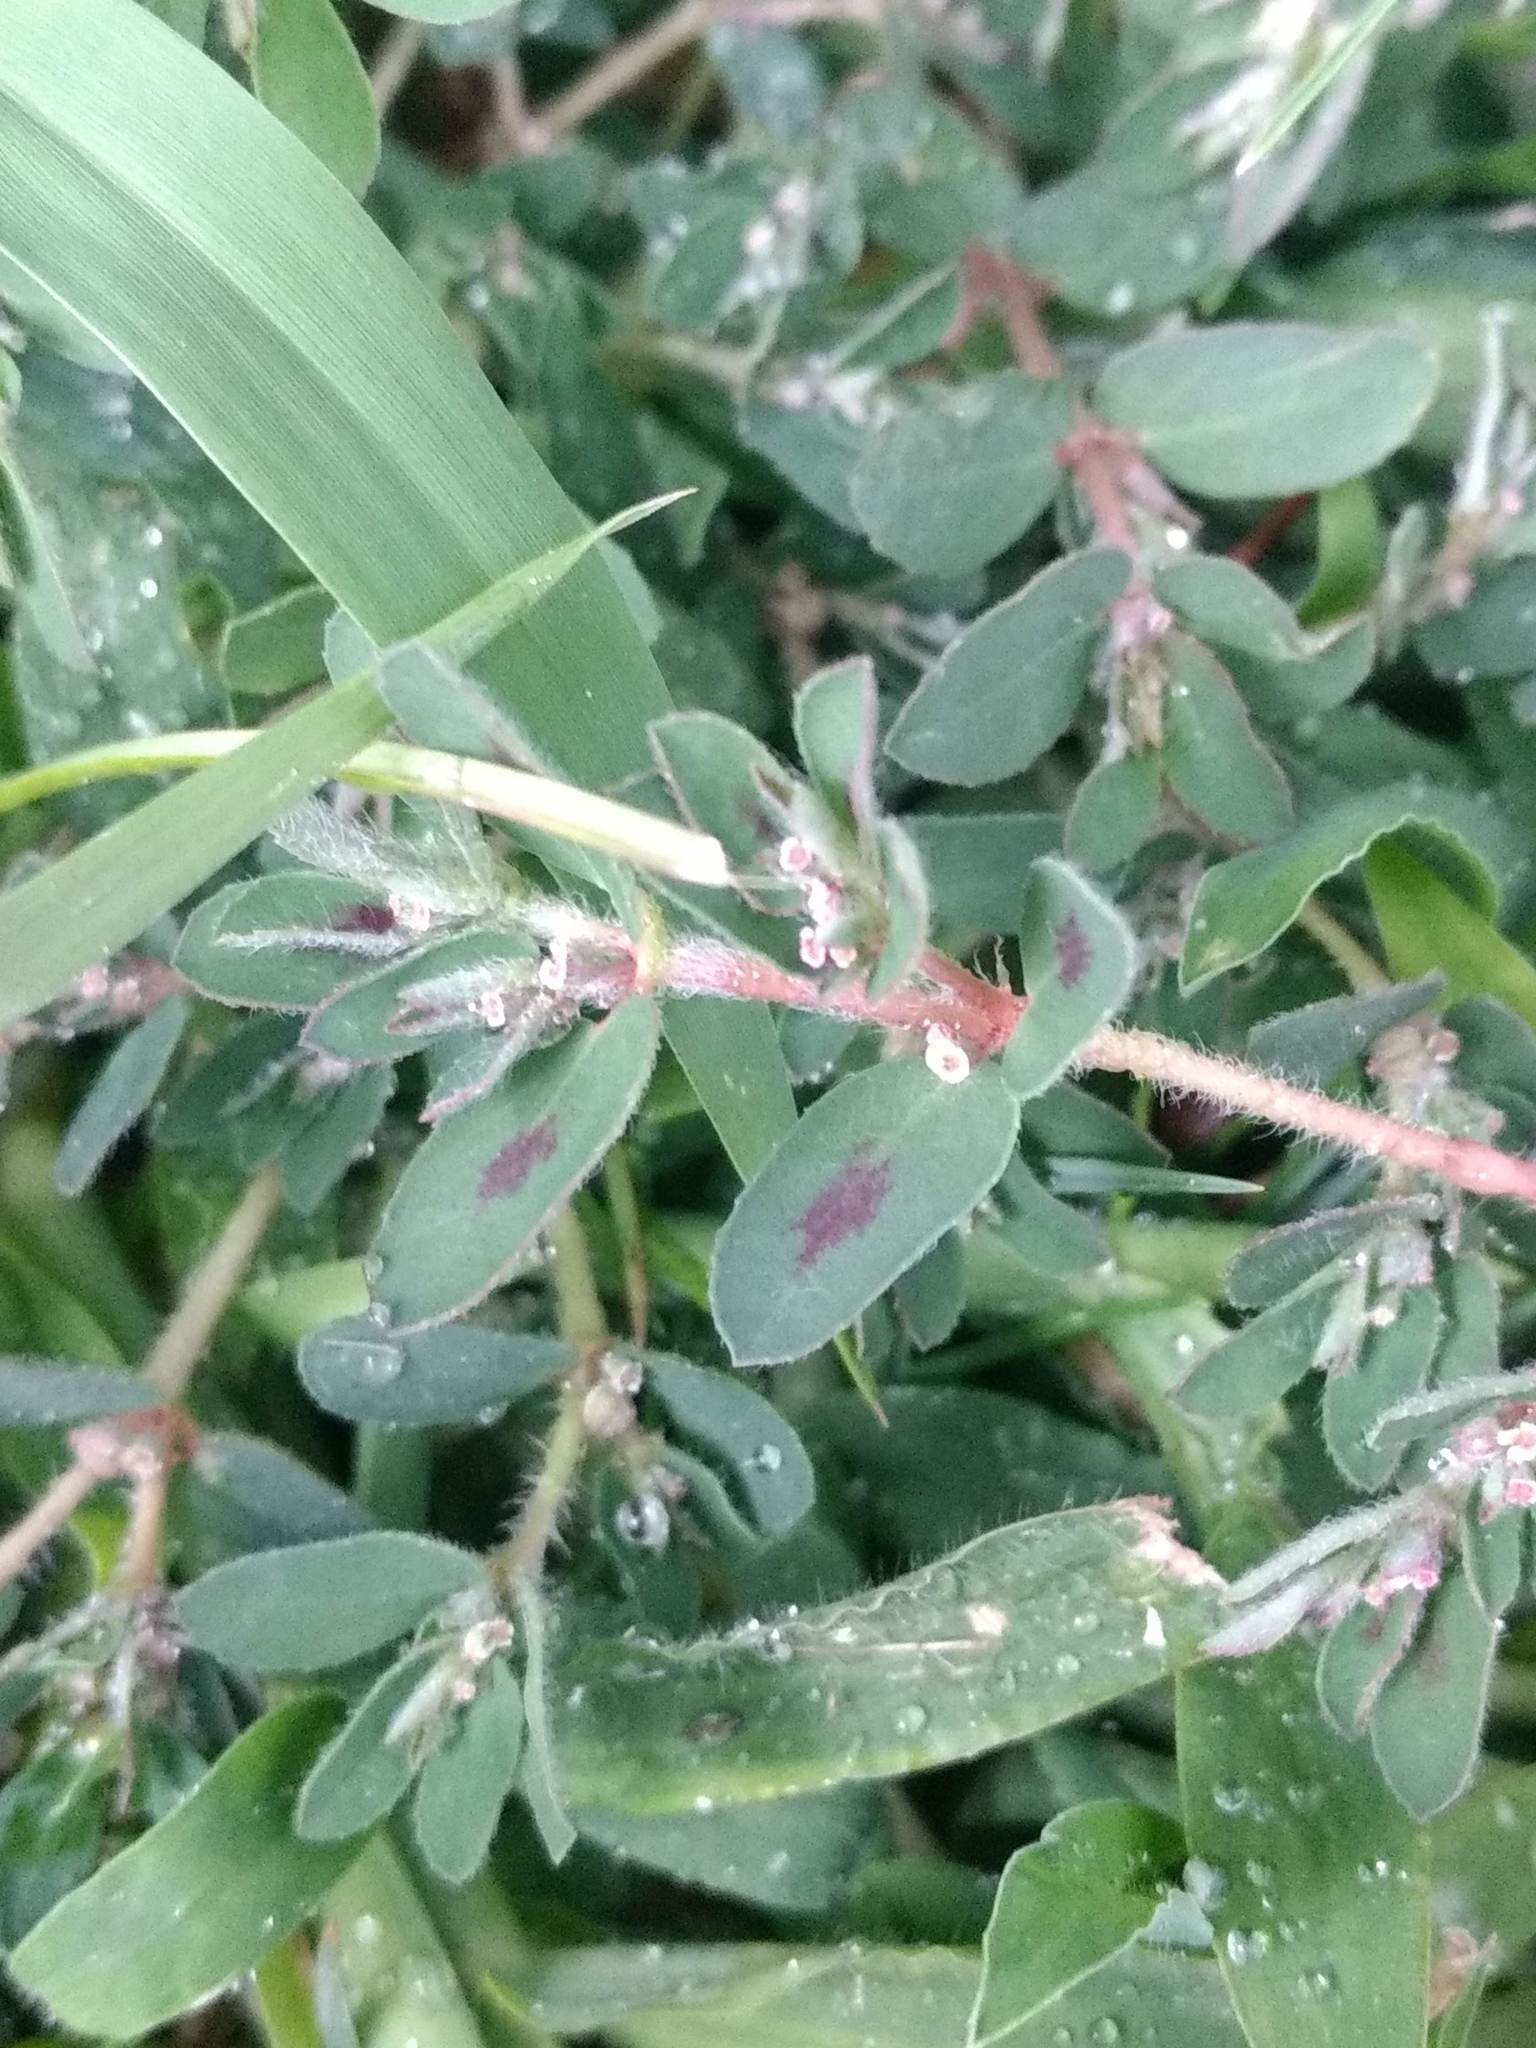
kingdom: Plantae
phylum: Tracheophyta
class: Magnoliopsida
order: Malpighiales
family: Euphorbiaceae
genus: Euphorbia
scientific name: Euphorbia maculata
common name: Spotted spurge
